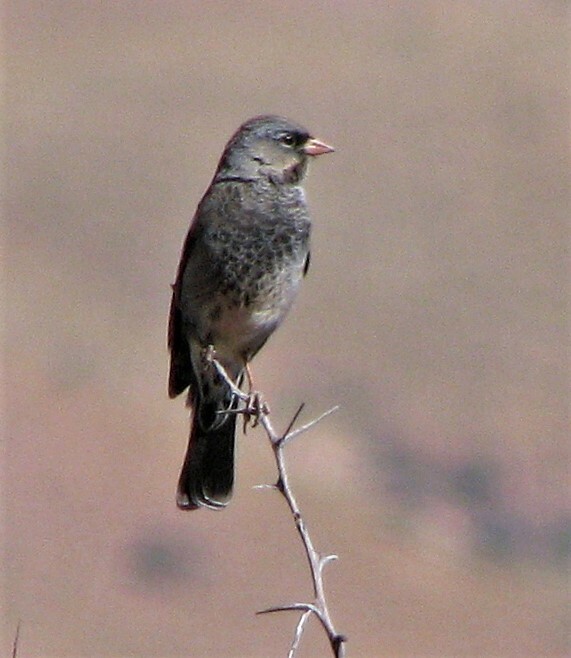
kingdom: Animalia
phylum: Chordata
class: Aves
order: Passeriformes
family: Thraupidae
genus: Rhopospina
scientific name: Rhopospina fruticeti
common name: Mourning sierra finch
